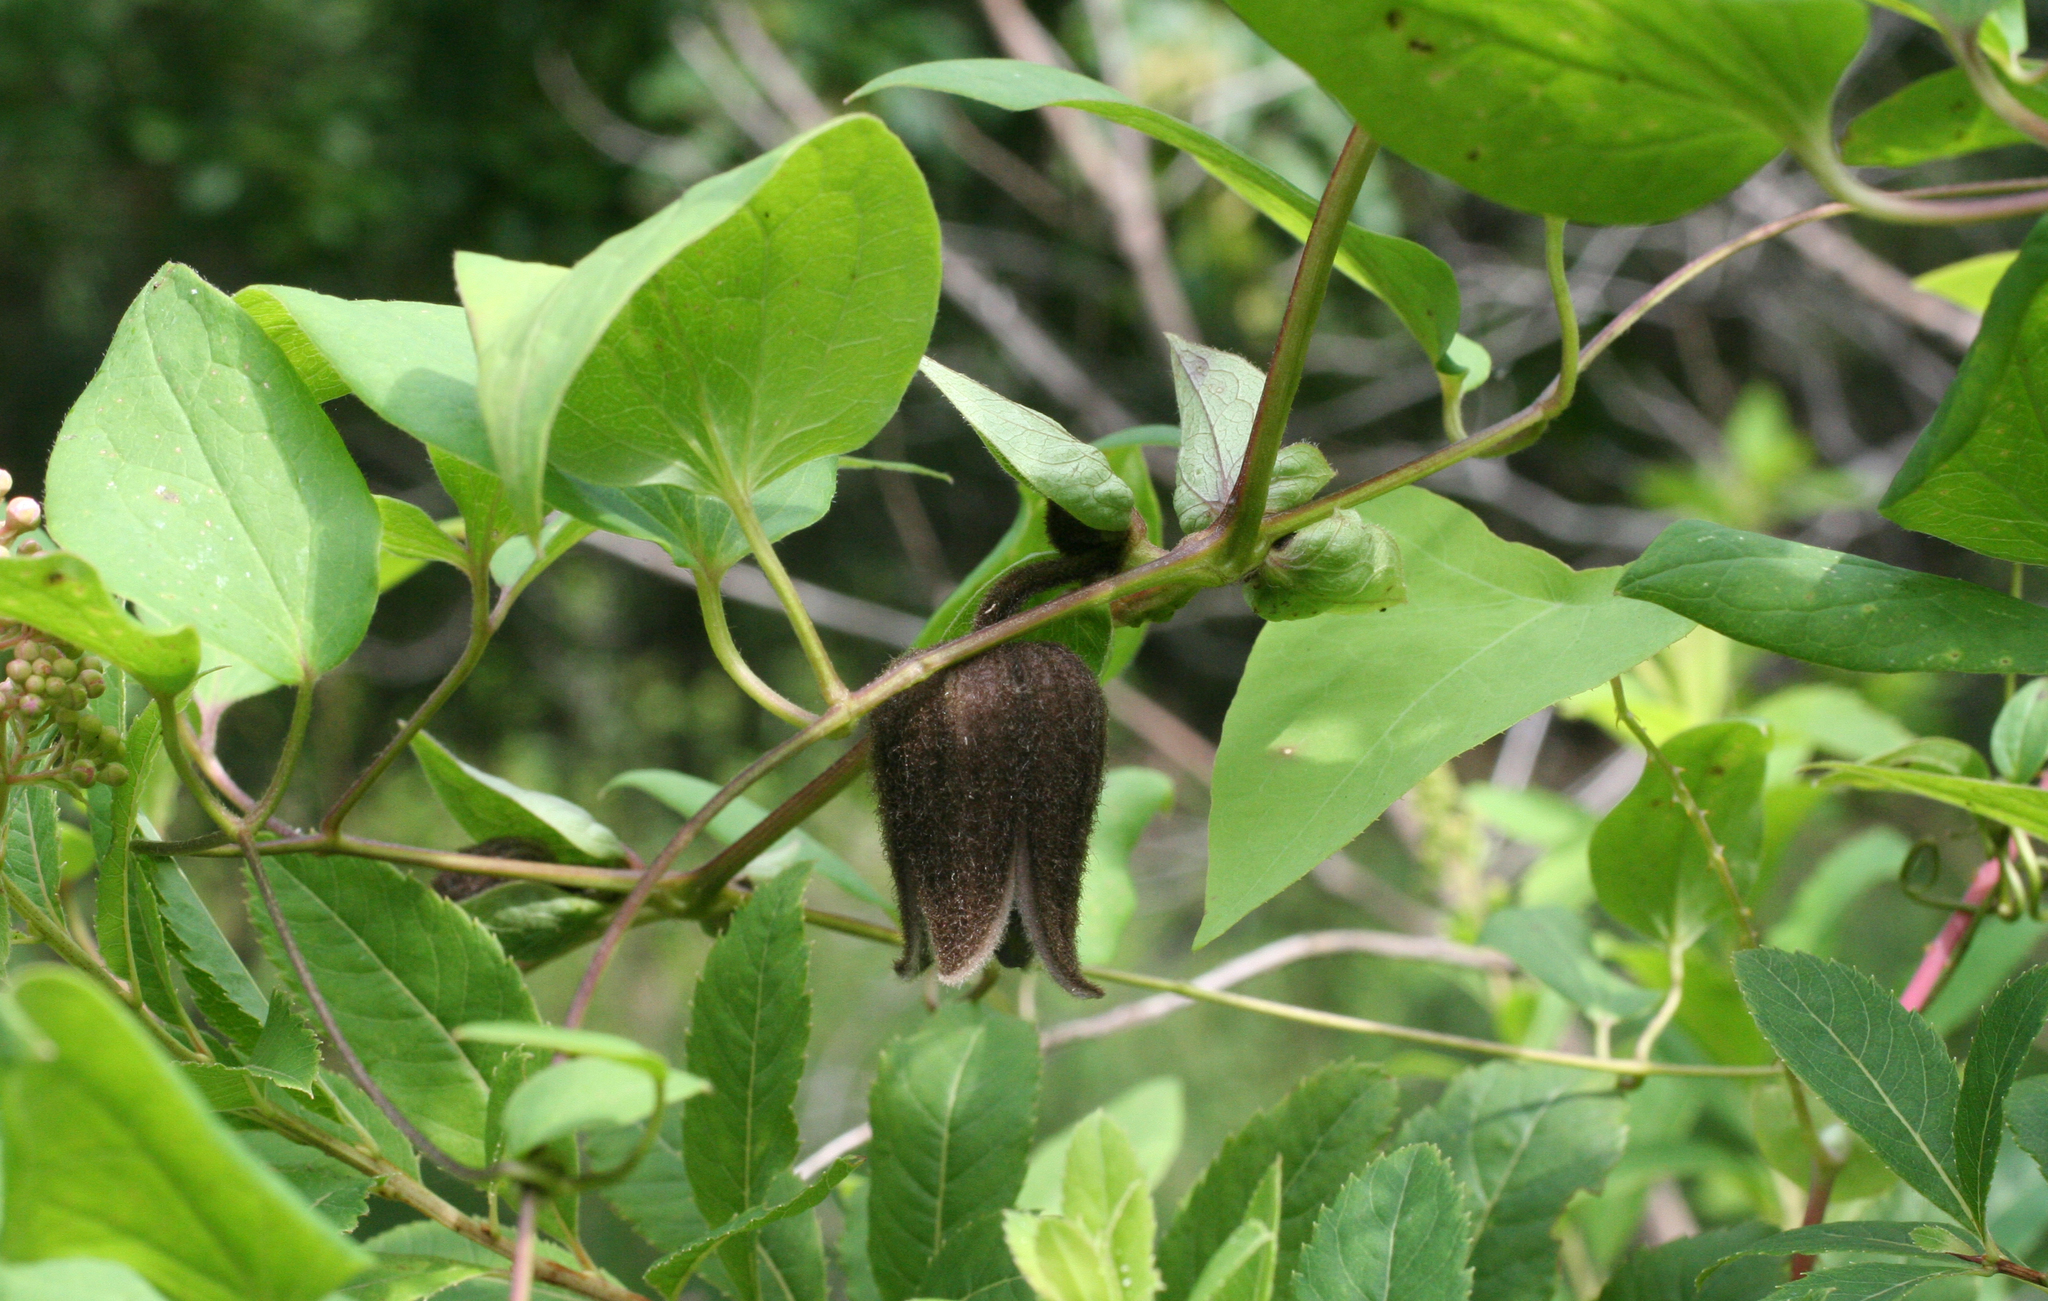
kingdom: Plantae
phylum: Tracheophyta
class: Magnoliopsida
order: Ranunculales
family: Ranunculaceae
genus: Clematis
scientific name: Clematis fusca
